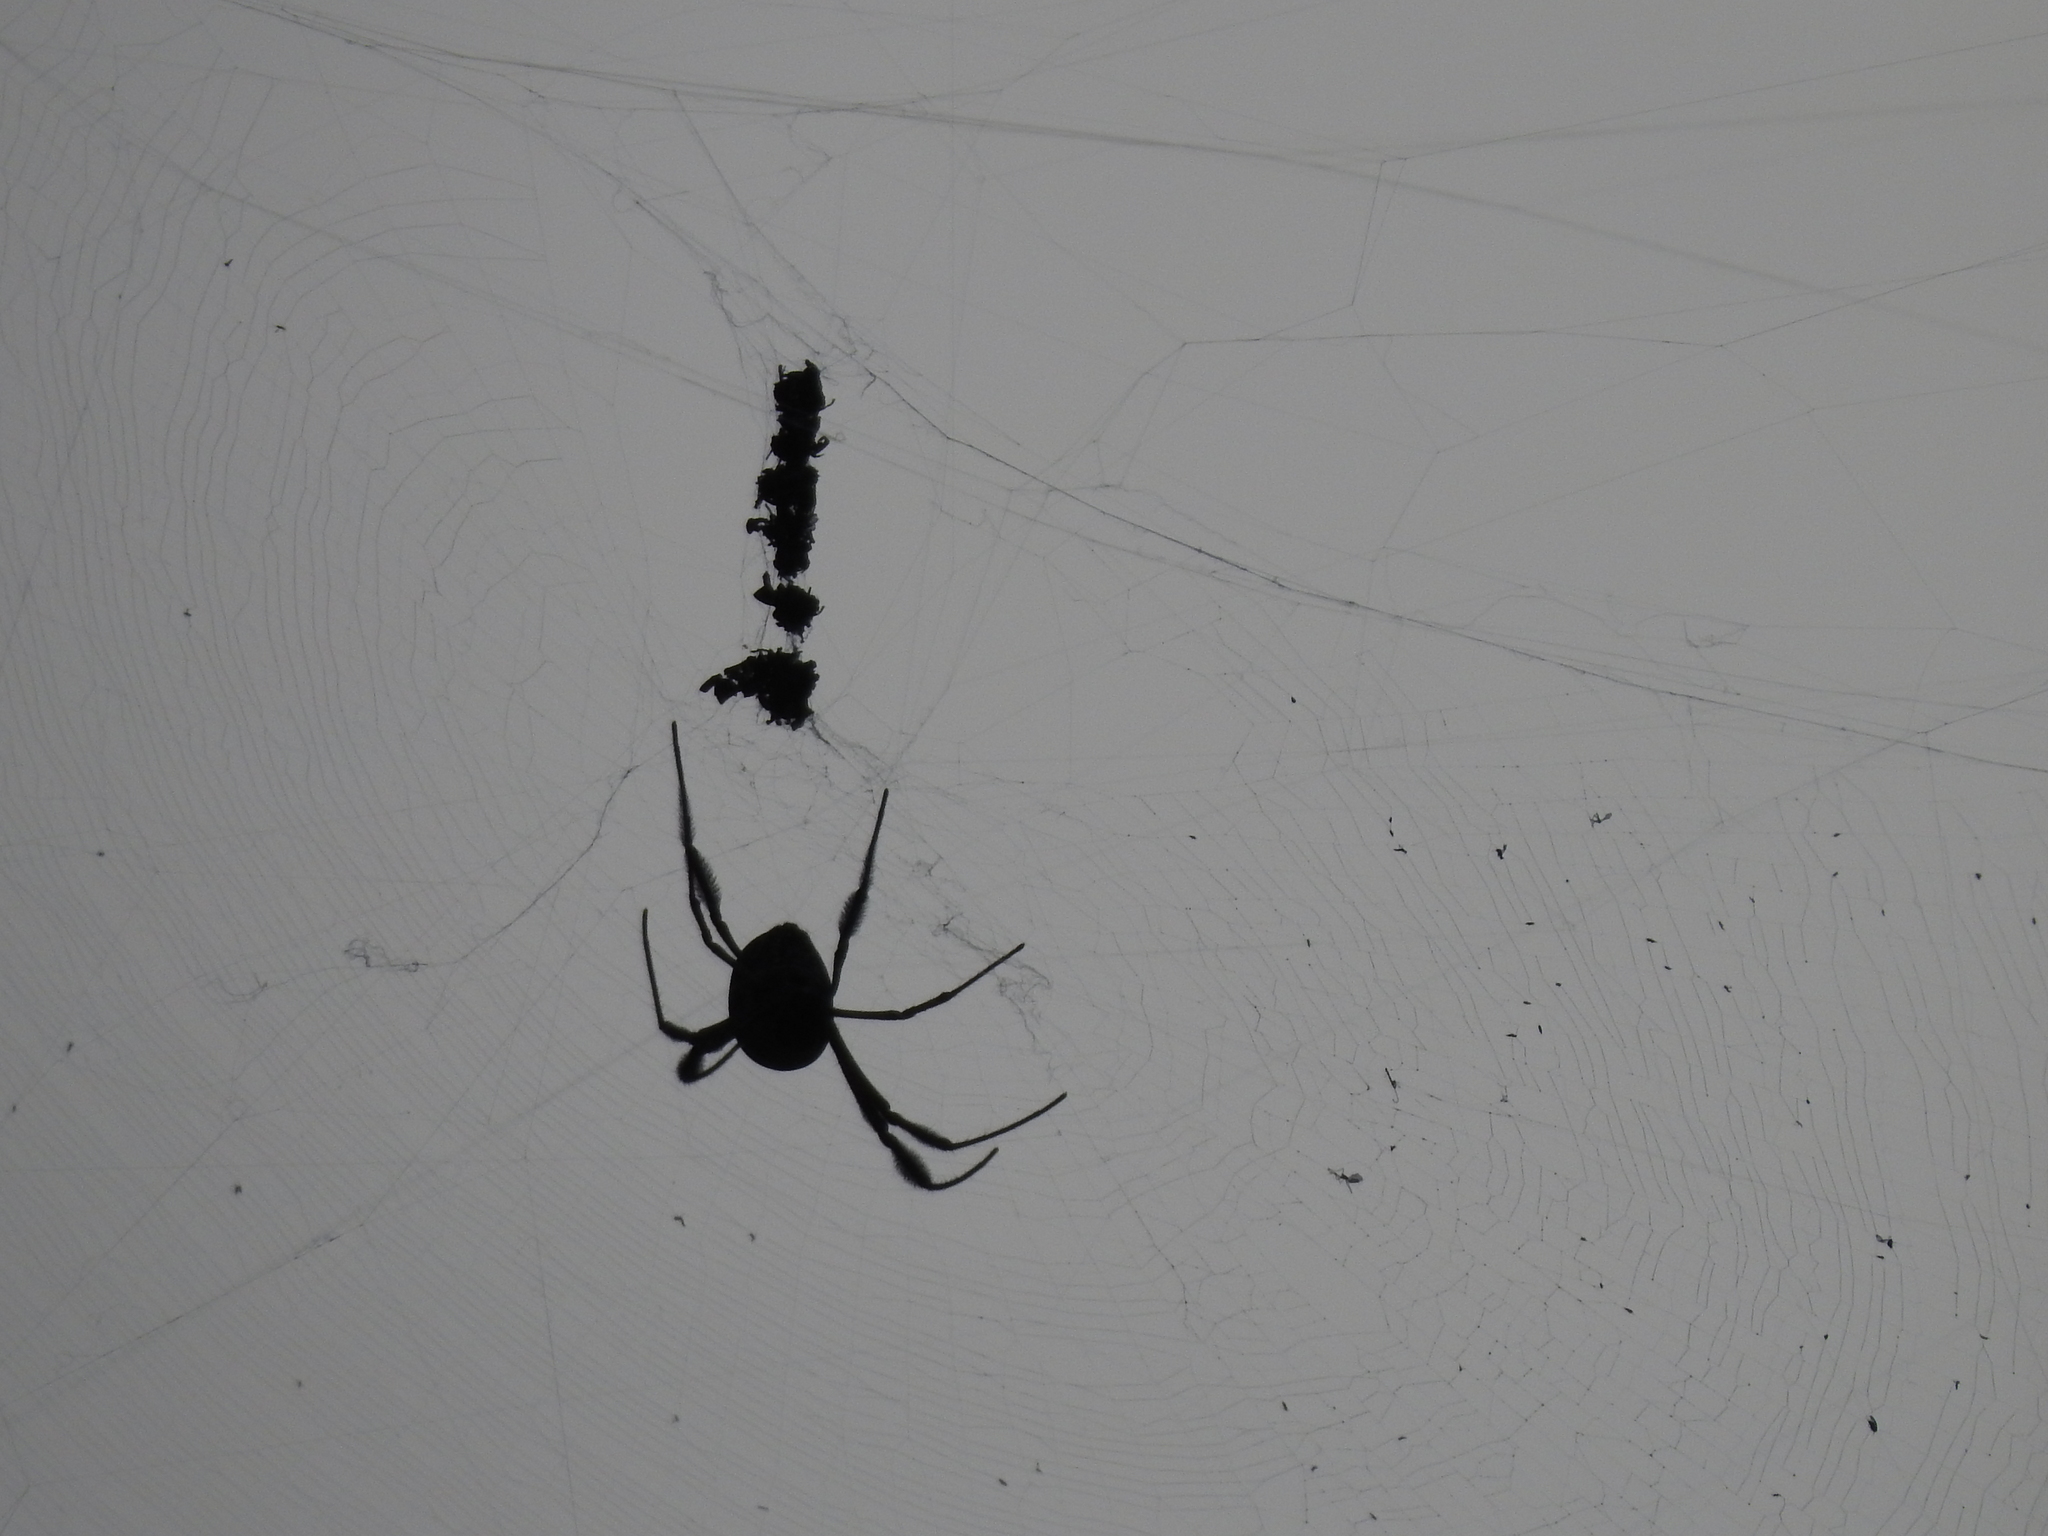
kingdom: Animalia
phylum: Arthropoda
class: Arachnida
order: Araneae
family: Araneidae
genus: Trichonephila
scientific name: Trichonephila clavipes
